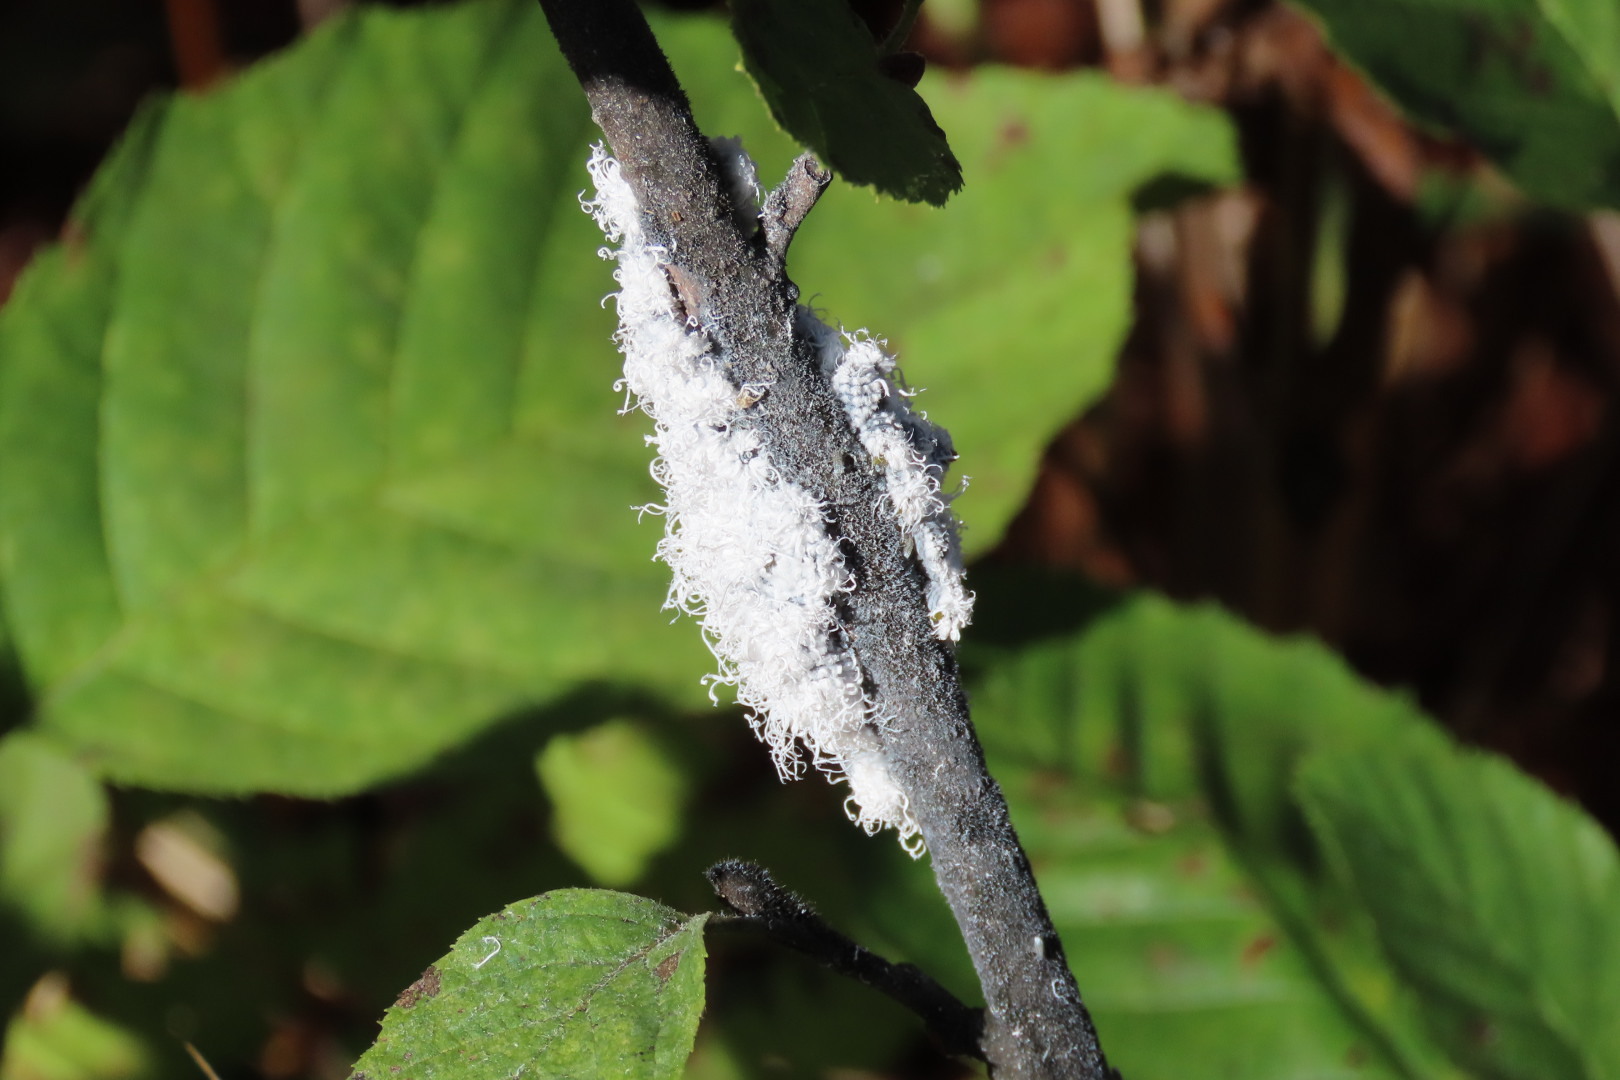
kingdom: Animalia
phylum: Arthropoda
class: Insecta
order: Hemiptera
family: Aphididae
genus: Prociphilus
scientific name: Prociphilus tessellatus
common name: Woolly alder aphid
